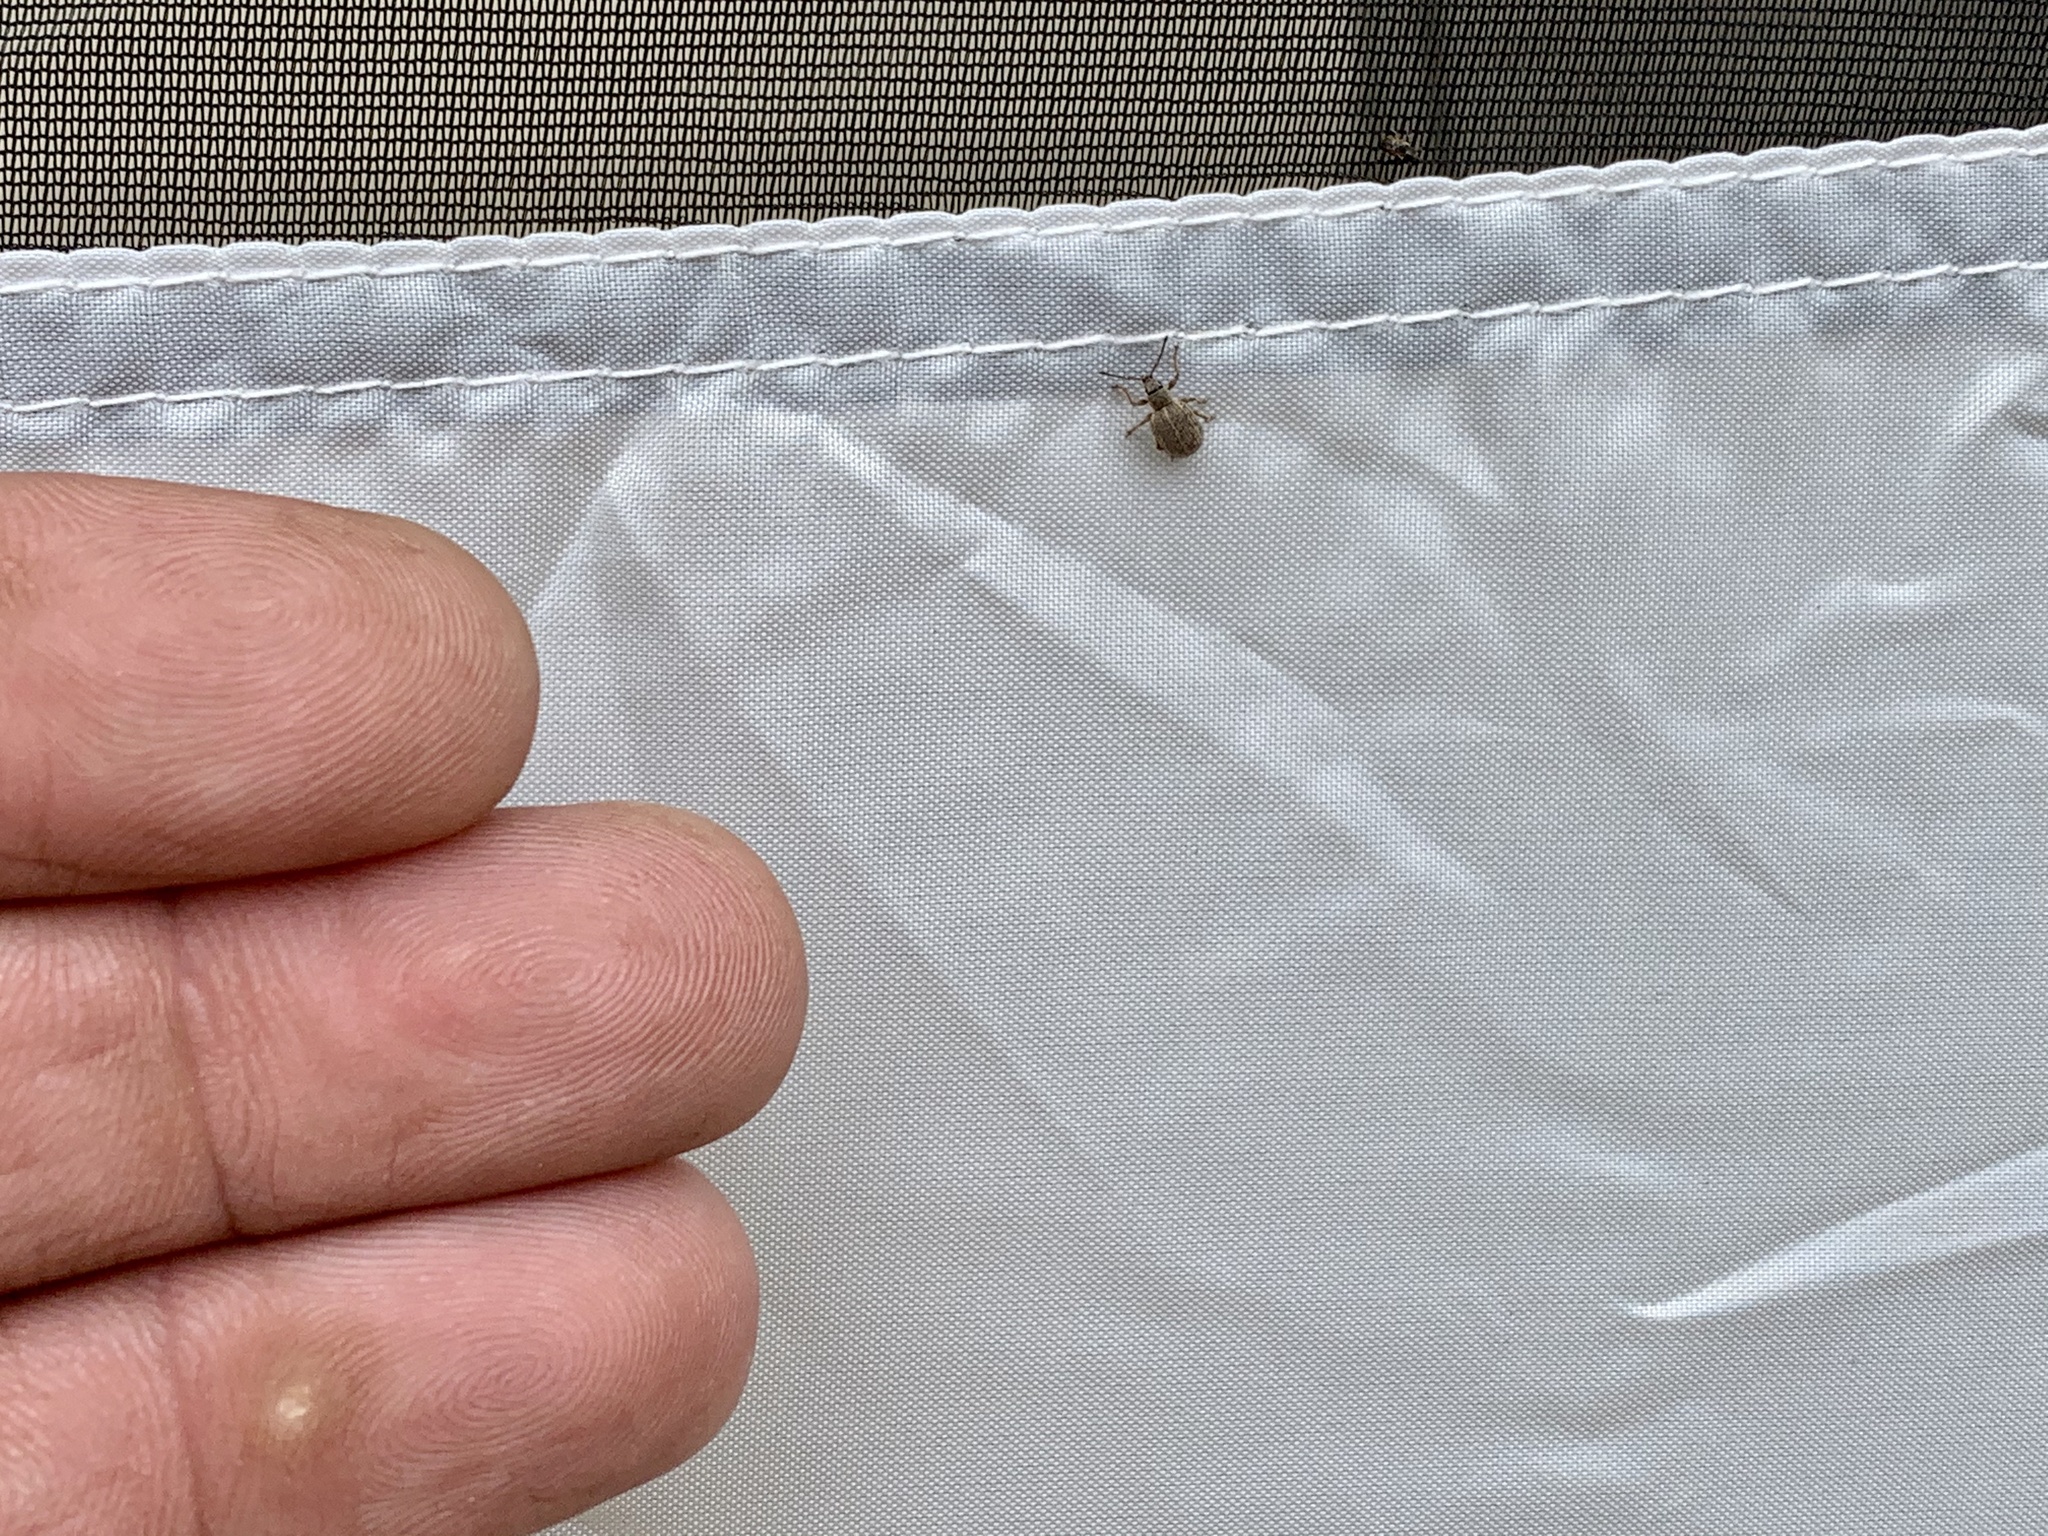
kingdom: Animalia
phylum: Arthropoda
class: Insecta
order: Coleoptera
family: Curculionidae
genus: Thricolepis
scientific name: Thricolepis inornata
